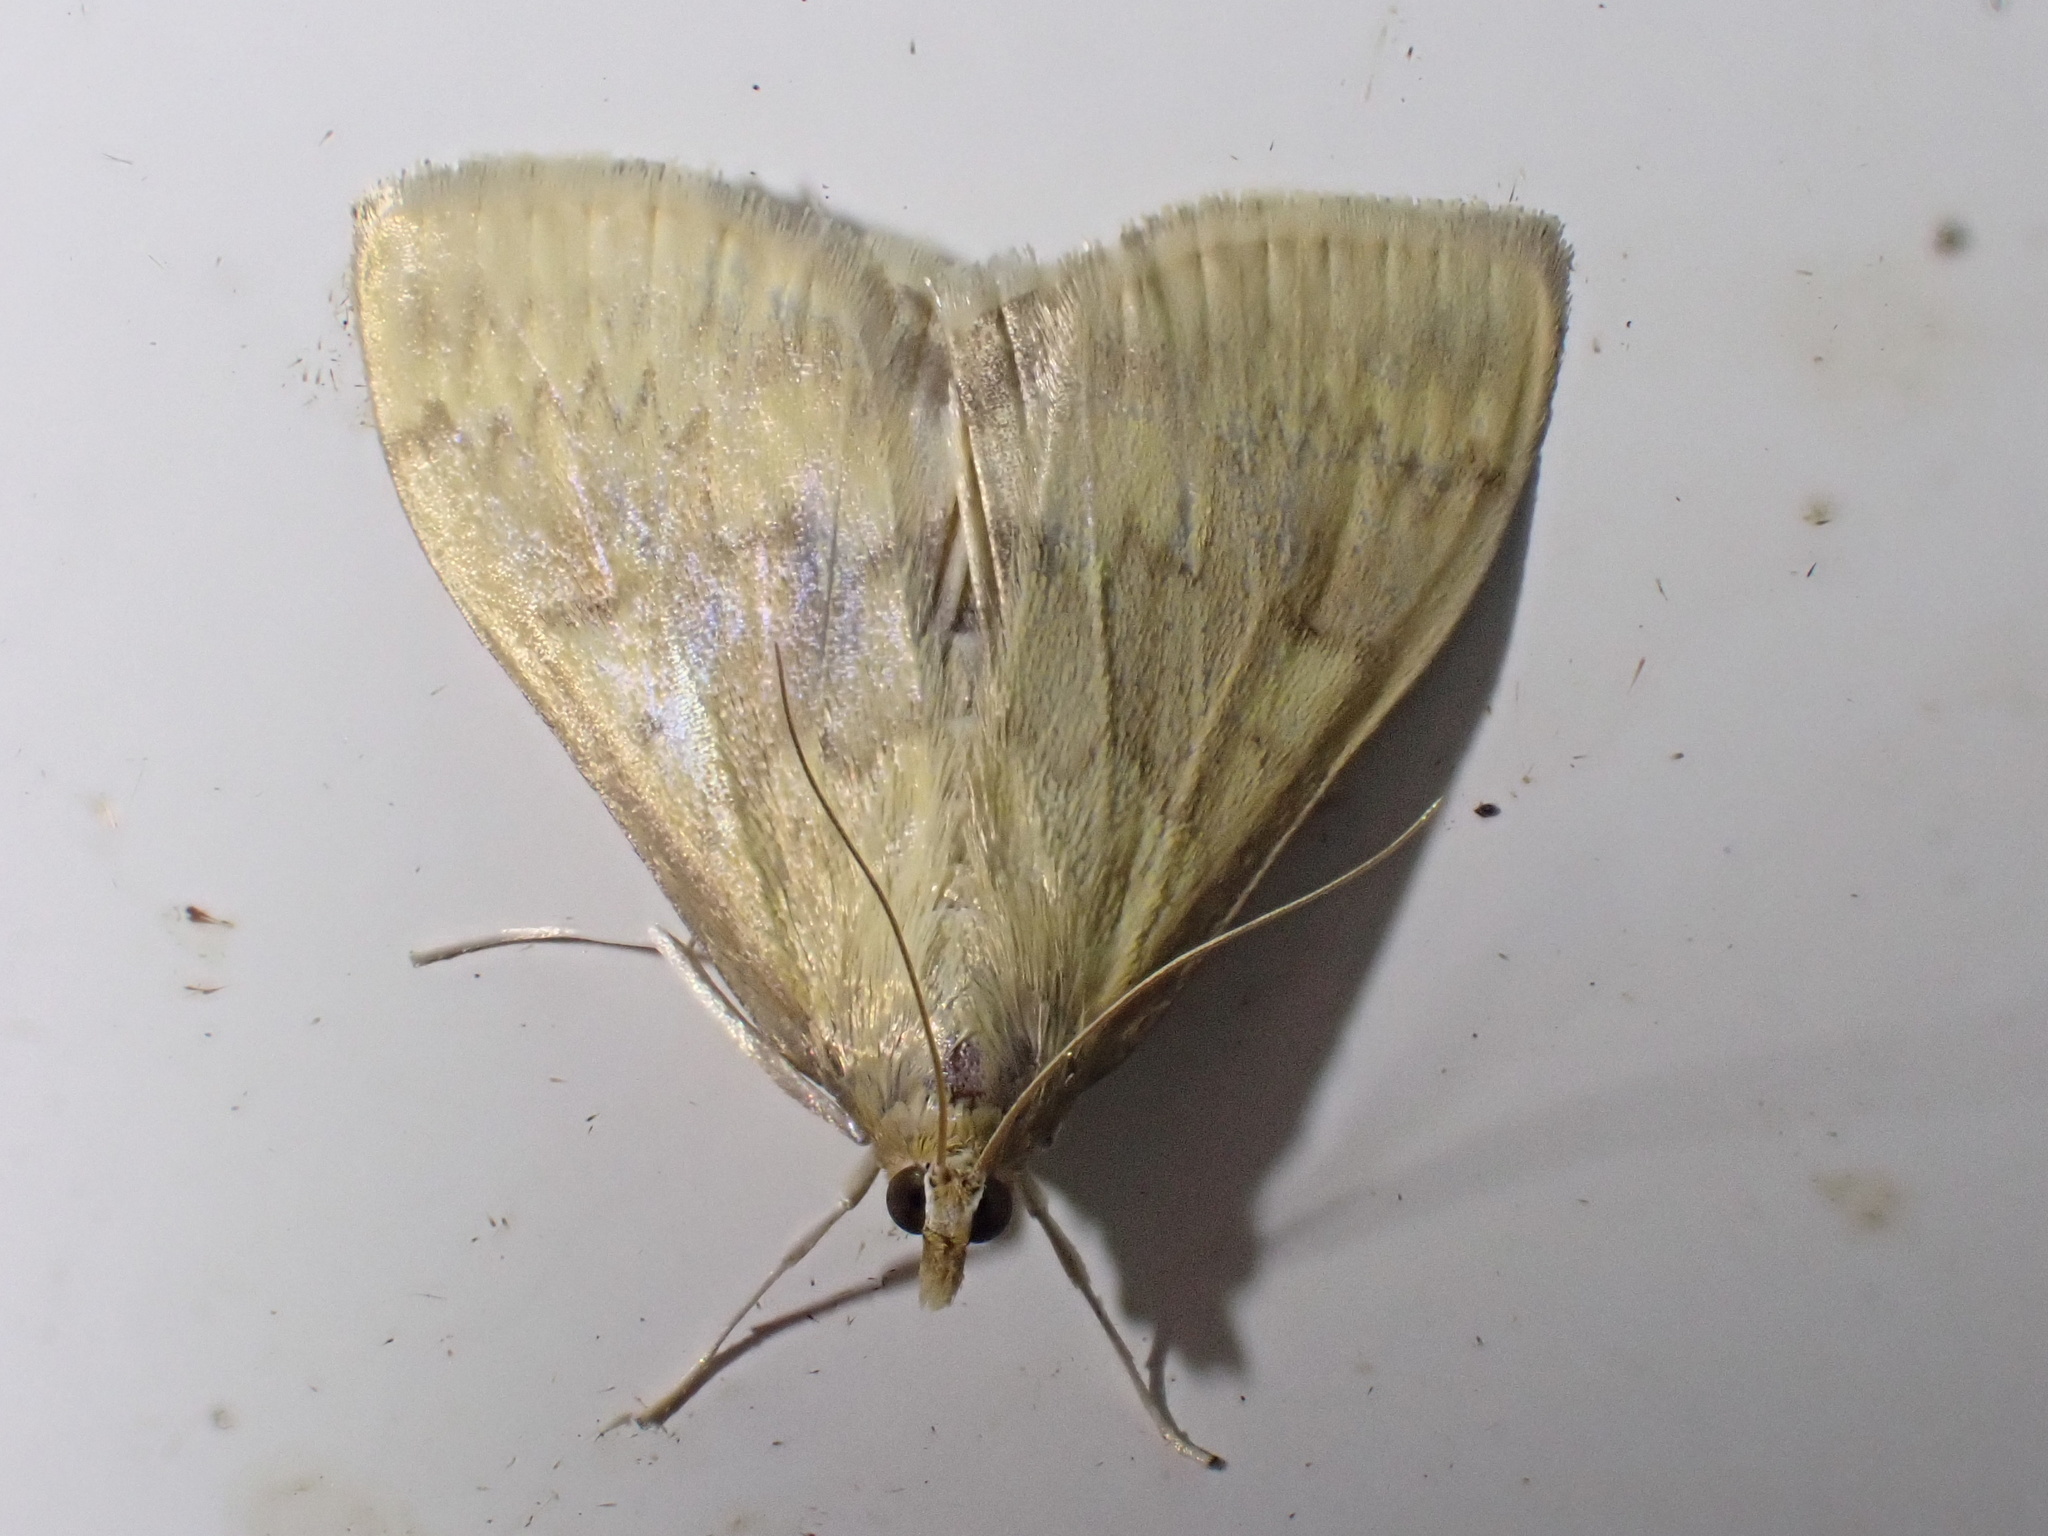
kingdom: Animalia
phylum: Arthropoda
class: Insecta
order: Lepidoptera
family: Crambidae
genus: Ostrinia
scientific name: Ostrinia nubilalis
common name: European corn borer
